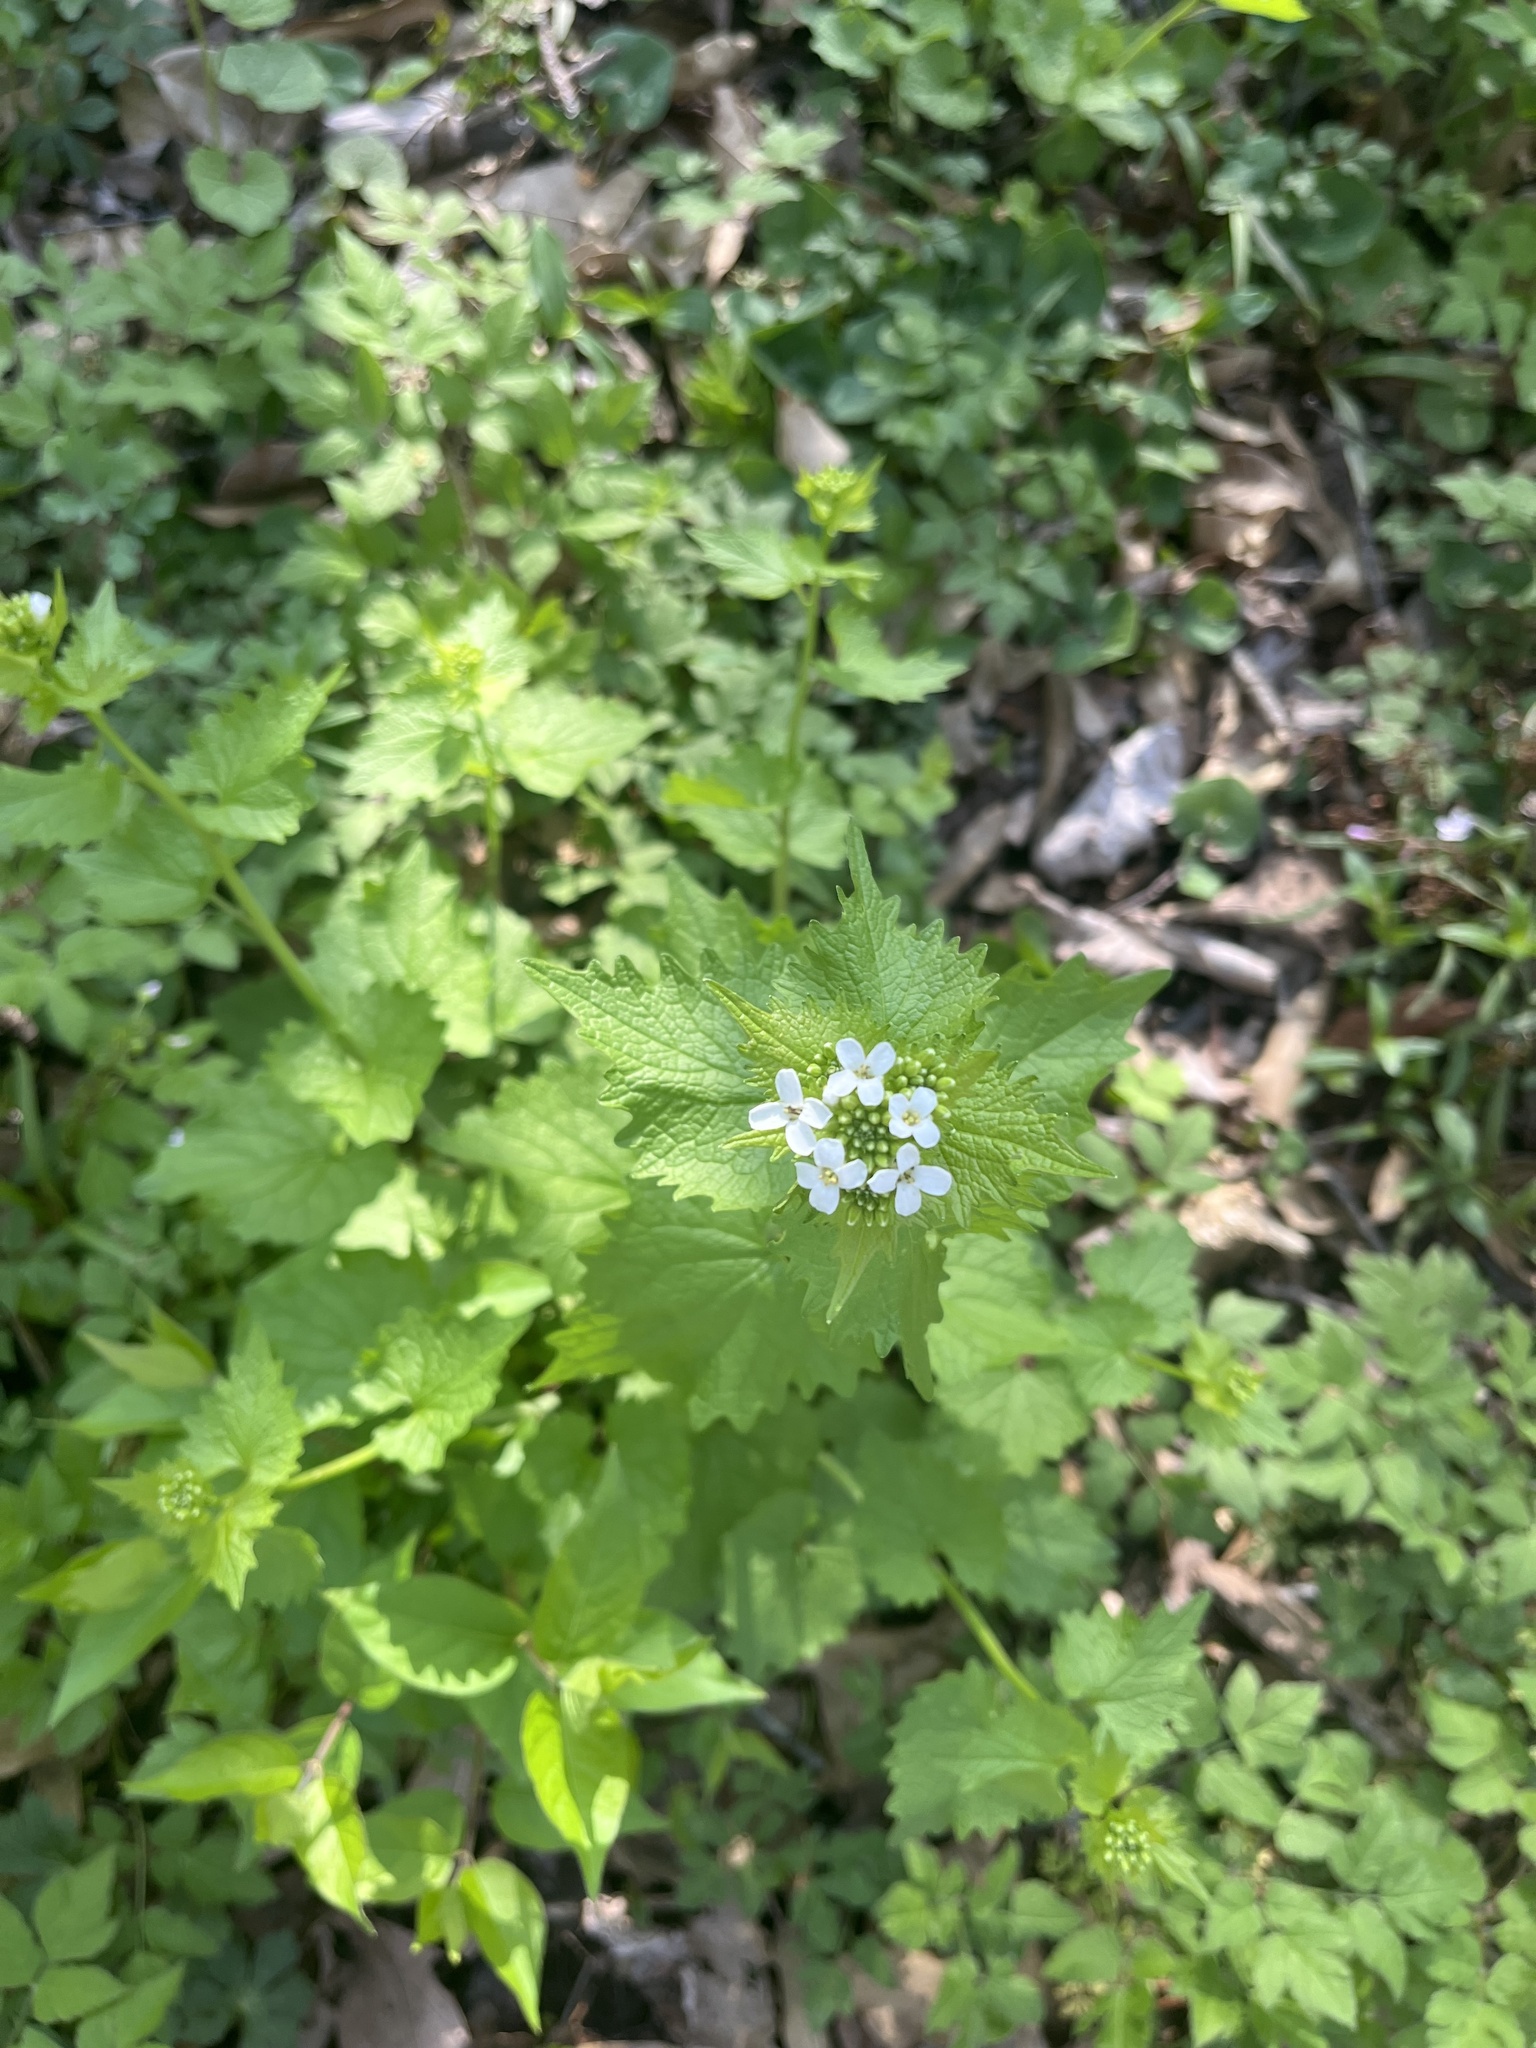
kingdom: Plantae
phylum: Tracheophyta
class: Magnoliopsida
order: Brassicales
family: Brassicaceae
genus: Alliaria
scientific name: Alliaria petiolata
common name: Garlic mustard
